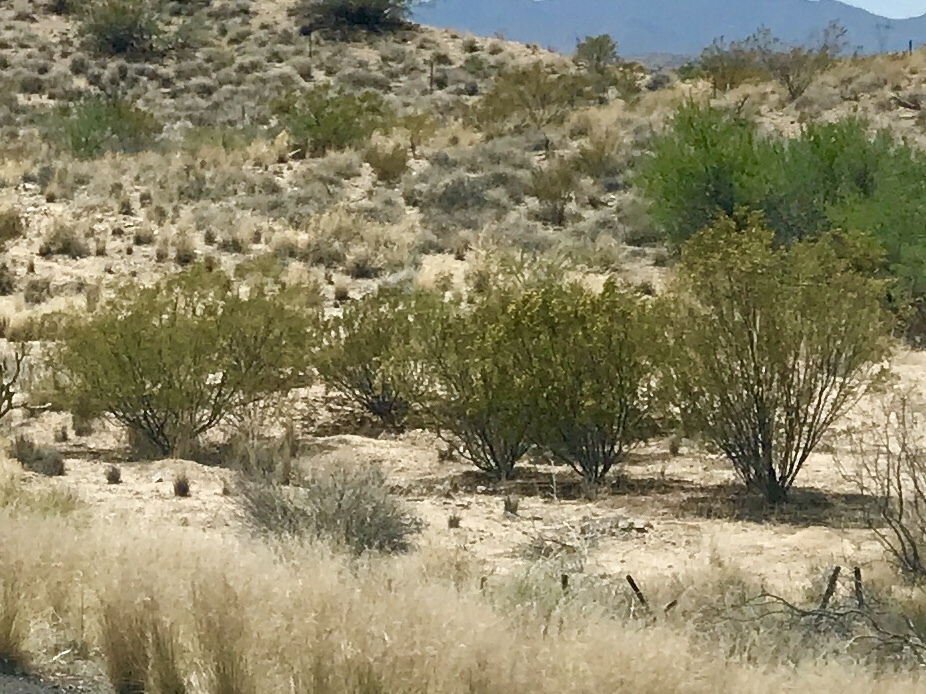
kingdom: Plantae
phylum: Tracheophyta
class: Magnoliopsida
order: Zygophyllales
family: Zygophyllaceae
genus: Larrea
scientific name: Larrea tridentata
